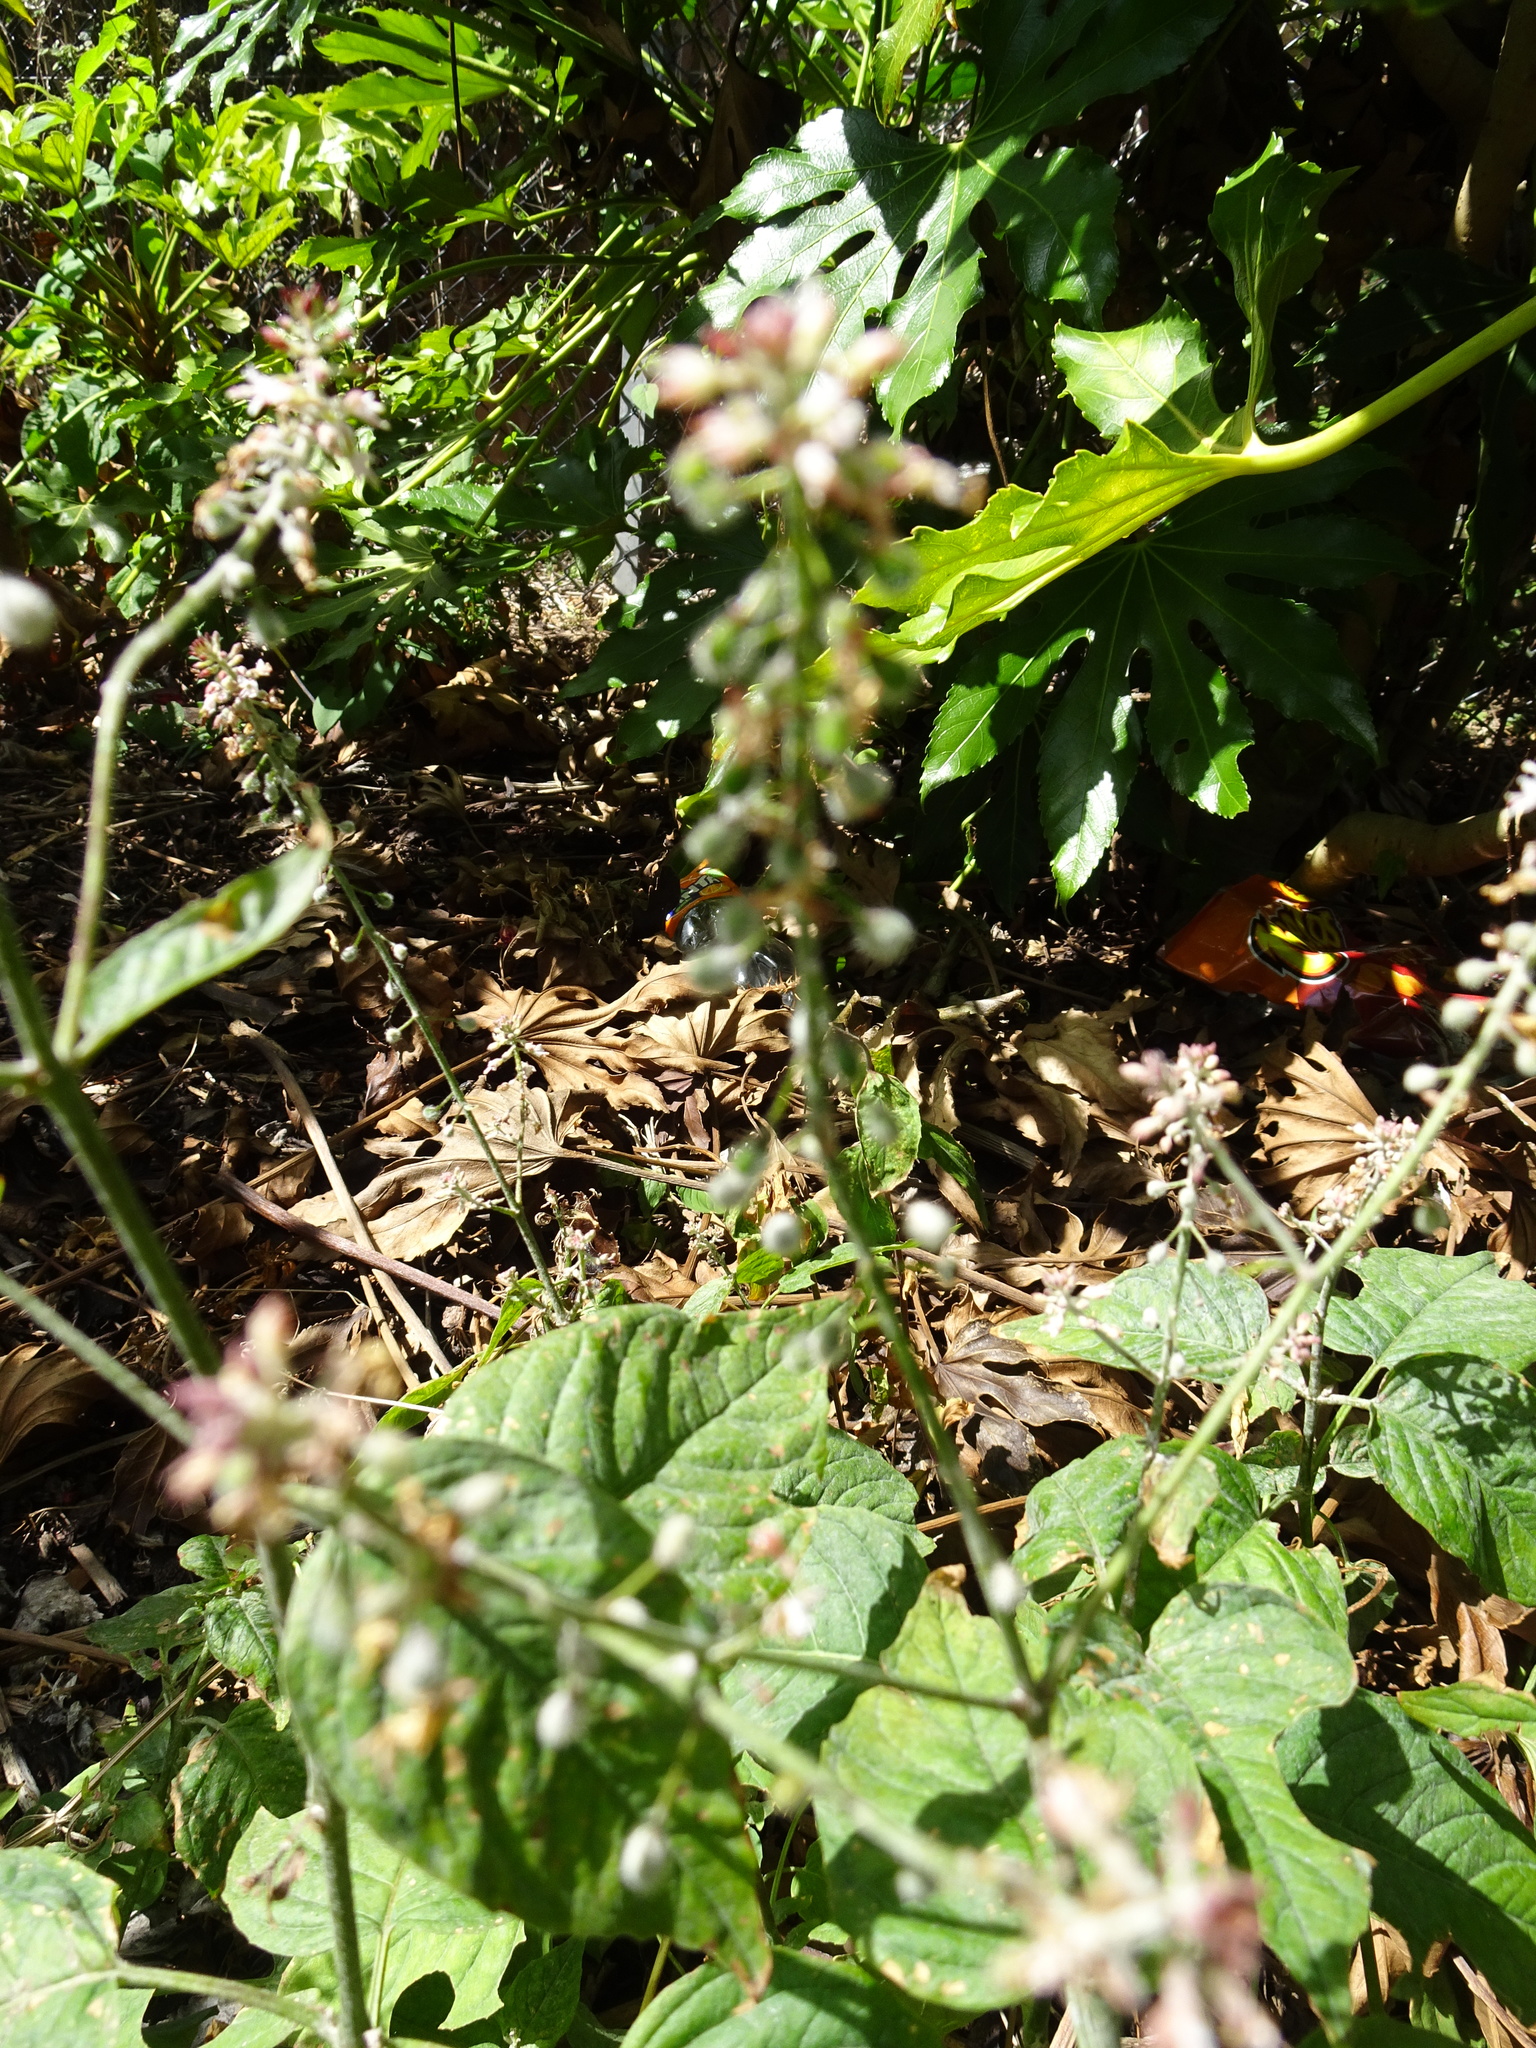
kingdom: Plantae
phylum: Tracheophyta
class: Magnoliopsida
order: Myrtales
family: Onagraceae
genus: Circaea
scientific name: Circaea lutetiana
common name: Enchanter's-nightshade
